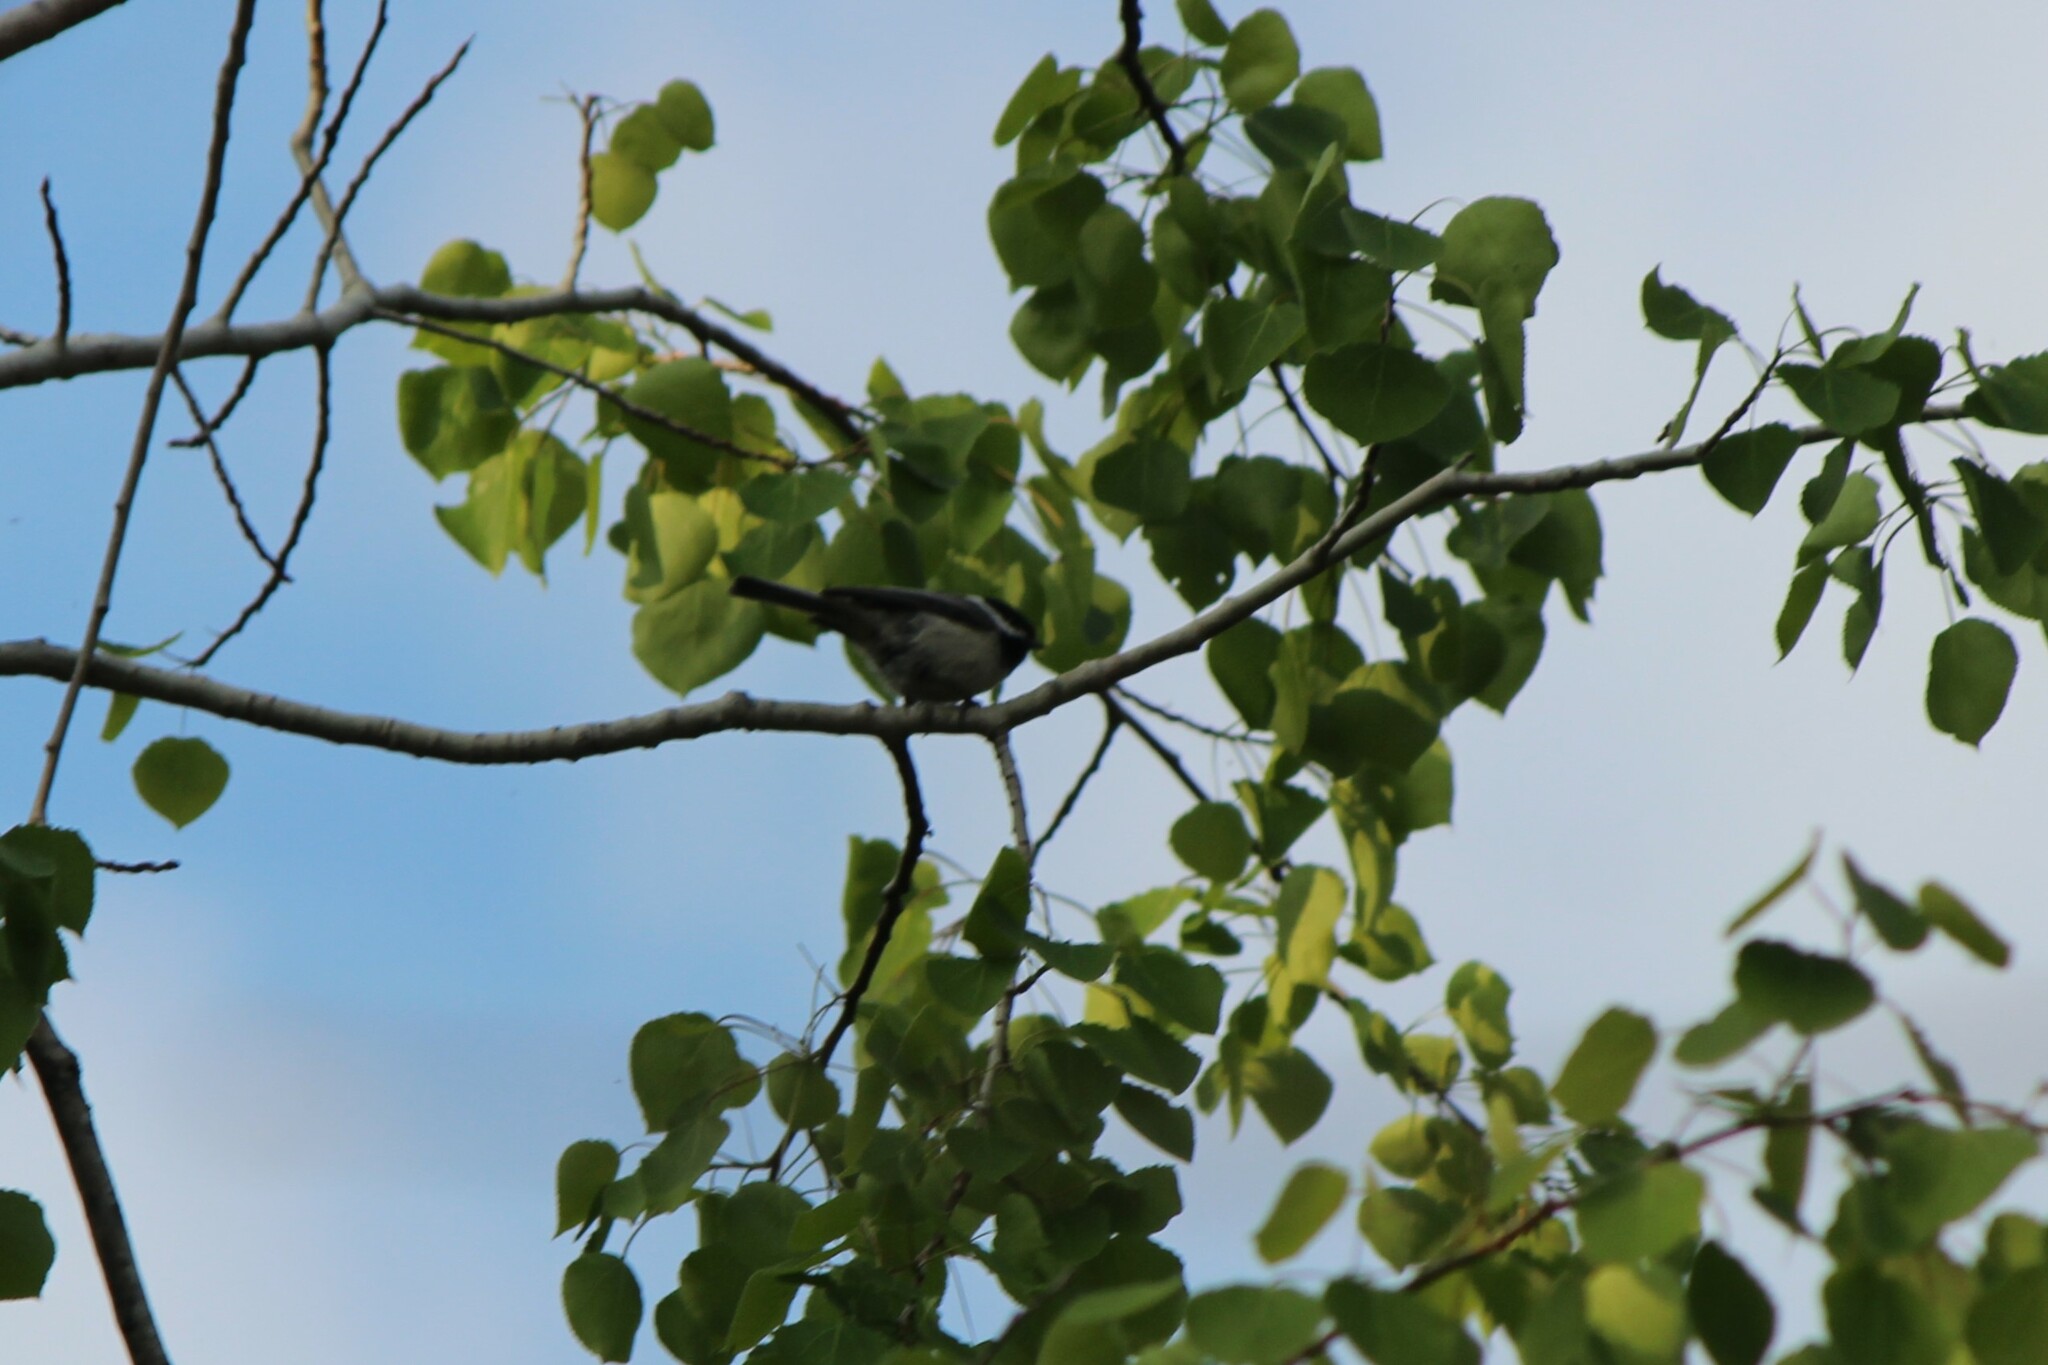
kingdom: Animalia
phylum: Chordata
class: Aves
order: Passeriformes
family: Paridae
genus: Poecile
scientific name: Poecile atricapillus
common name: Black-capped chickadee
